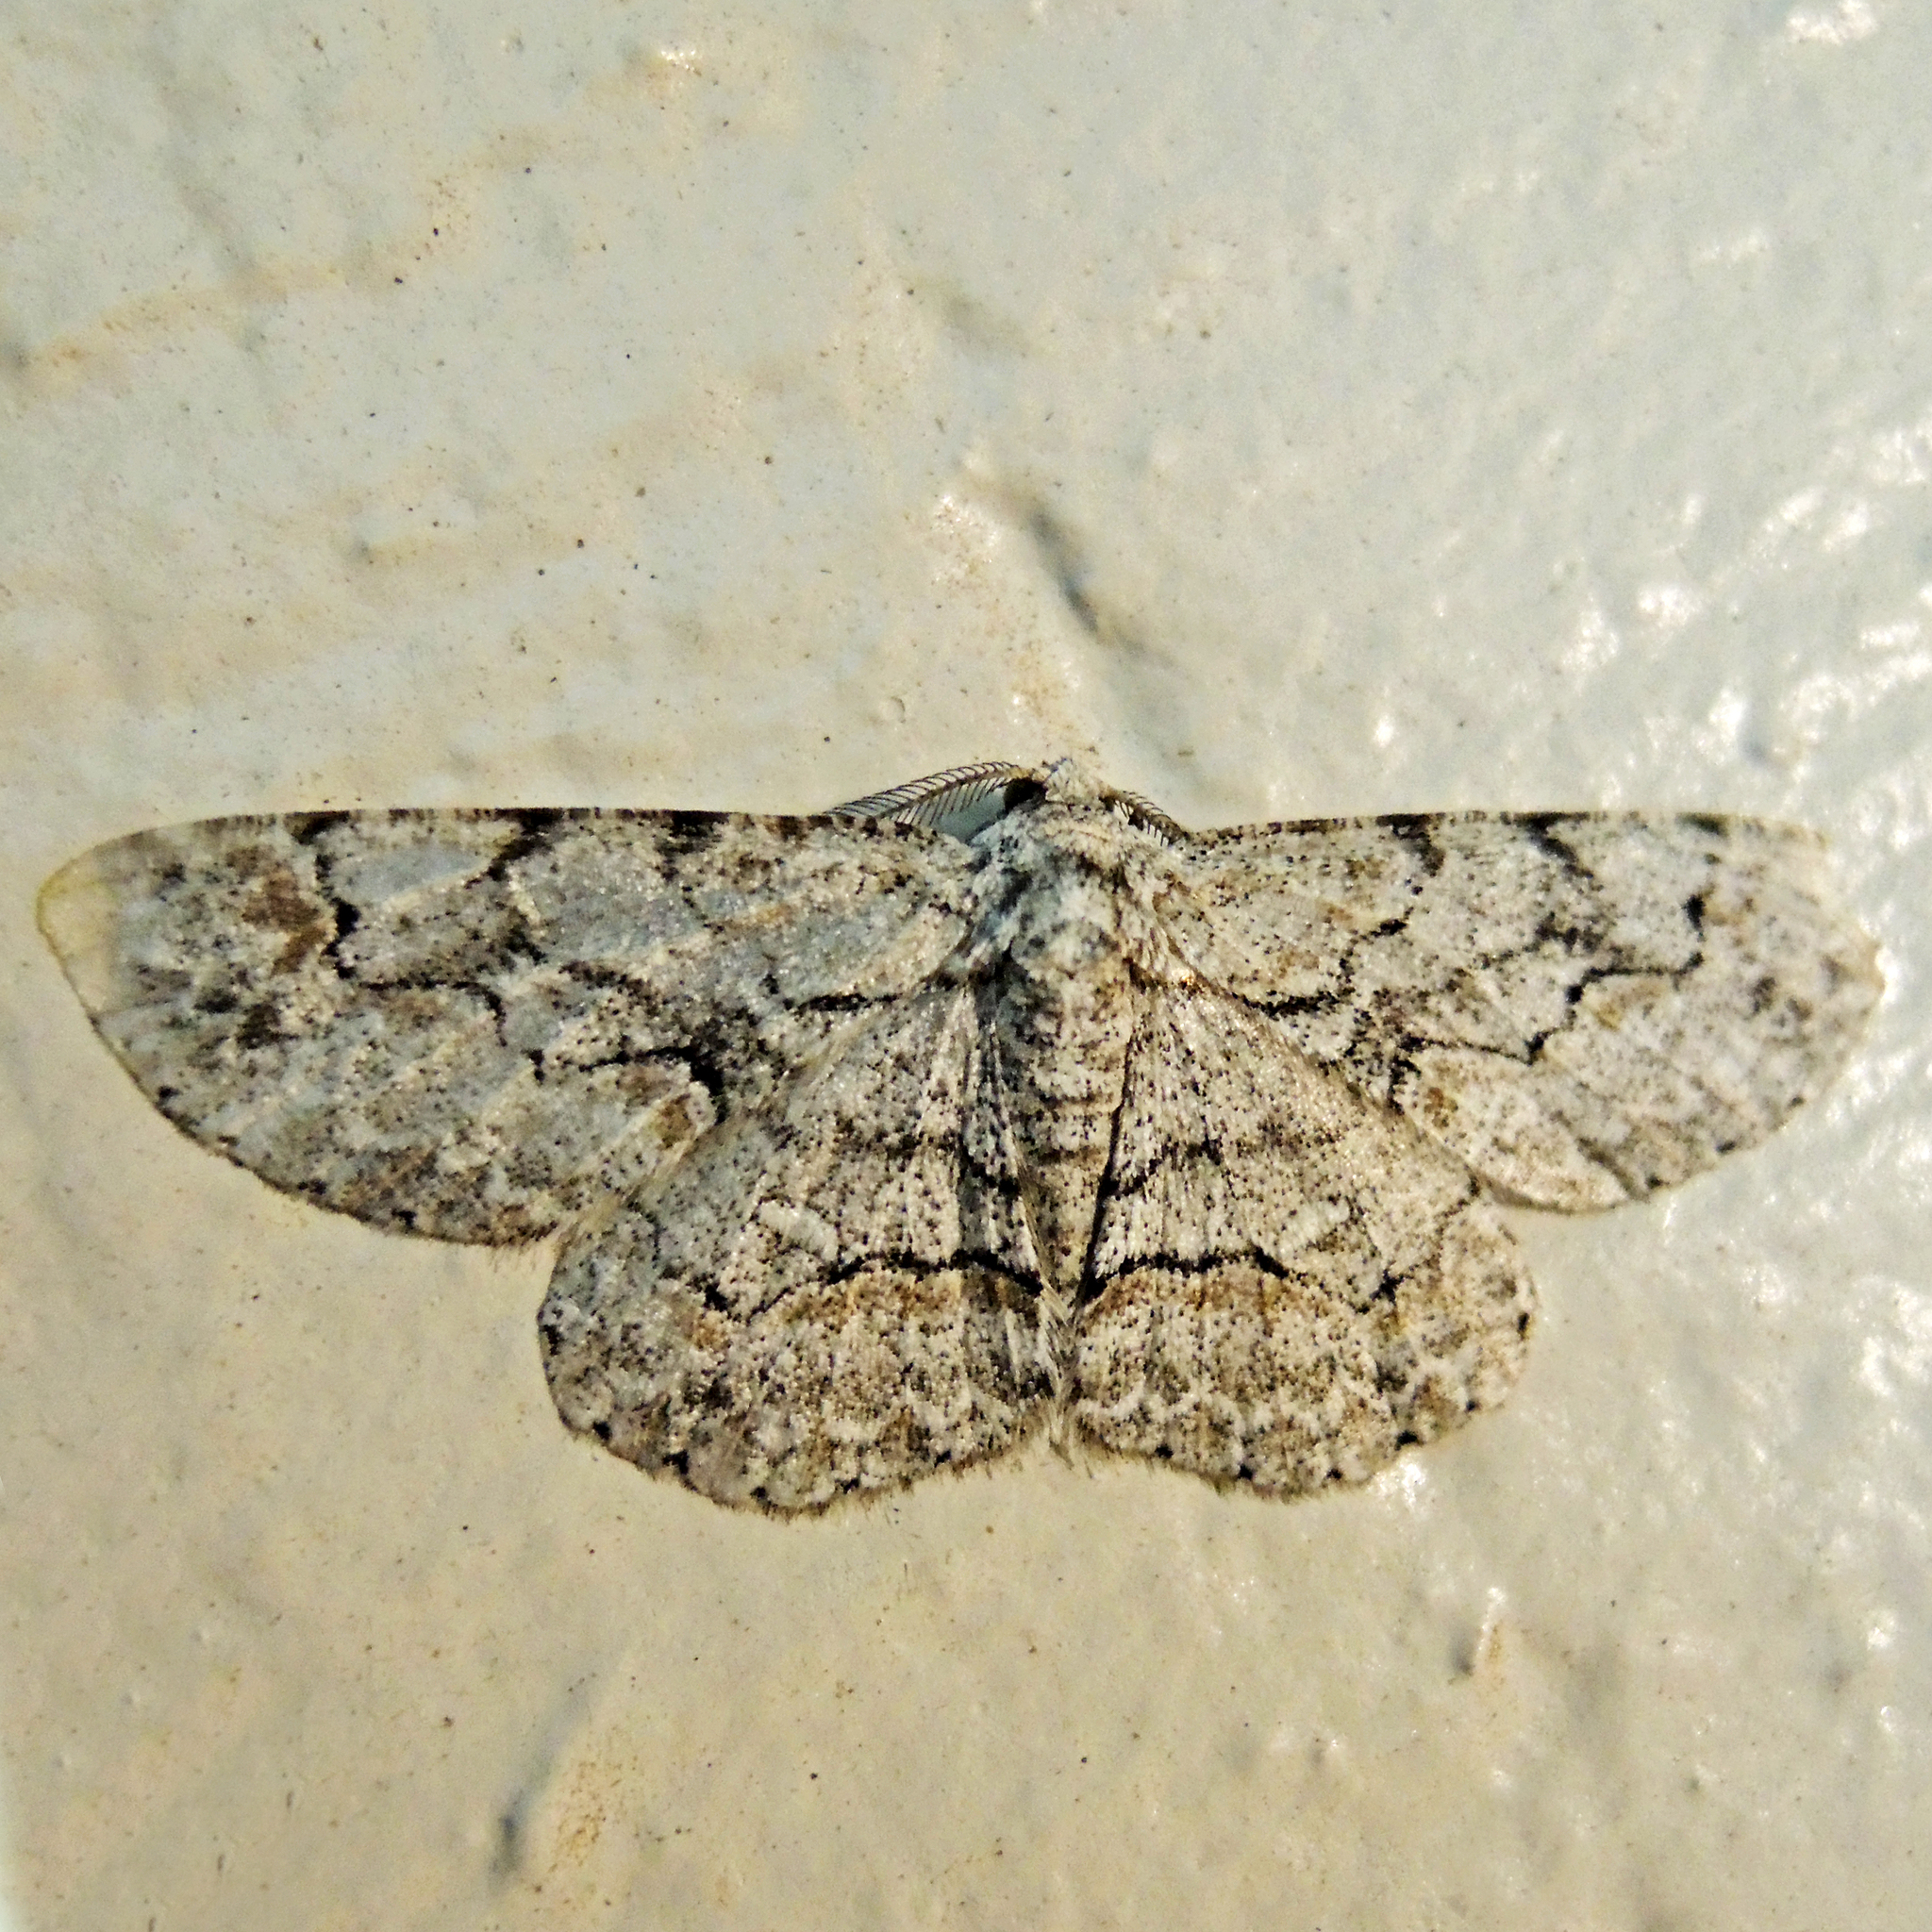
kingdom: Animalia
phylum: Arthropoda
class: Insecta
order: Lepidoptera
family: Geometridae
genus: Iridopsis
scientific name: Iridopsis larvaria
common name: Bent-line gray
